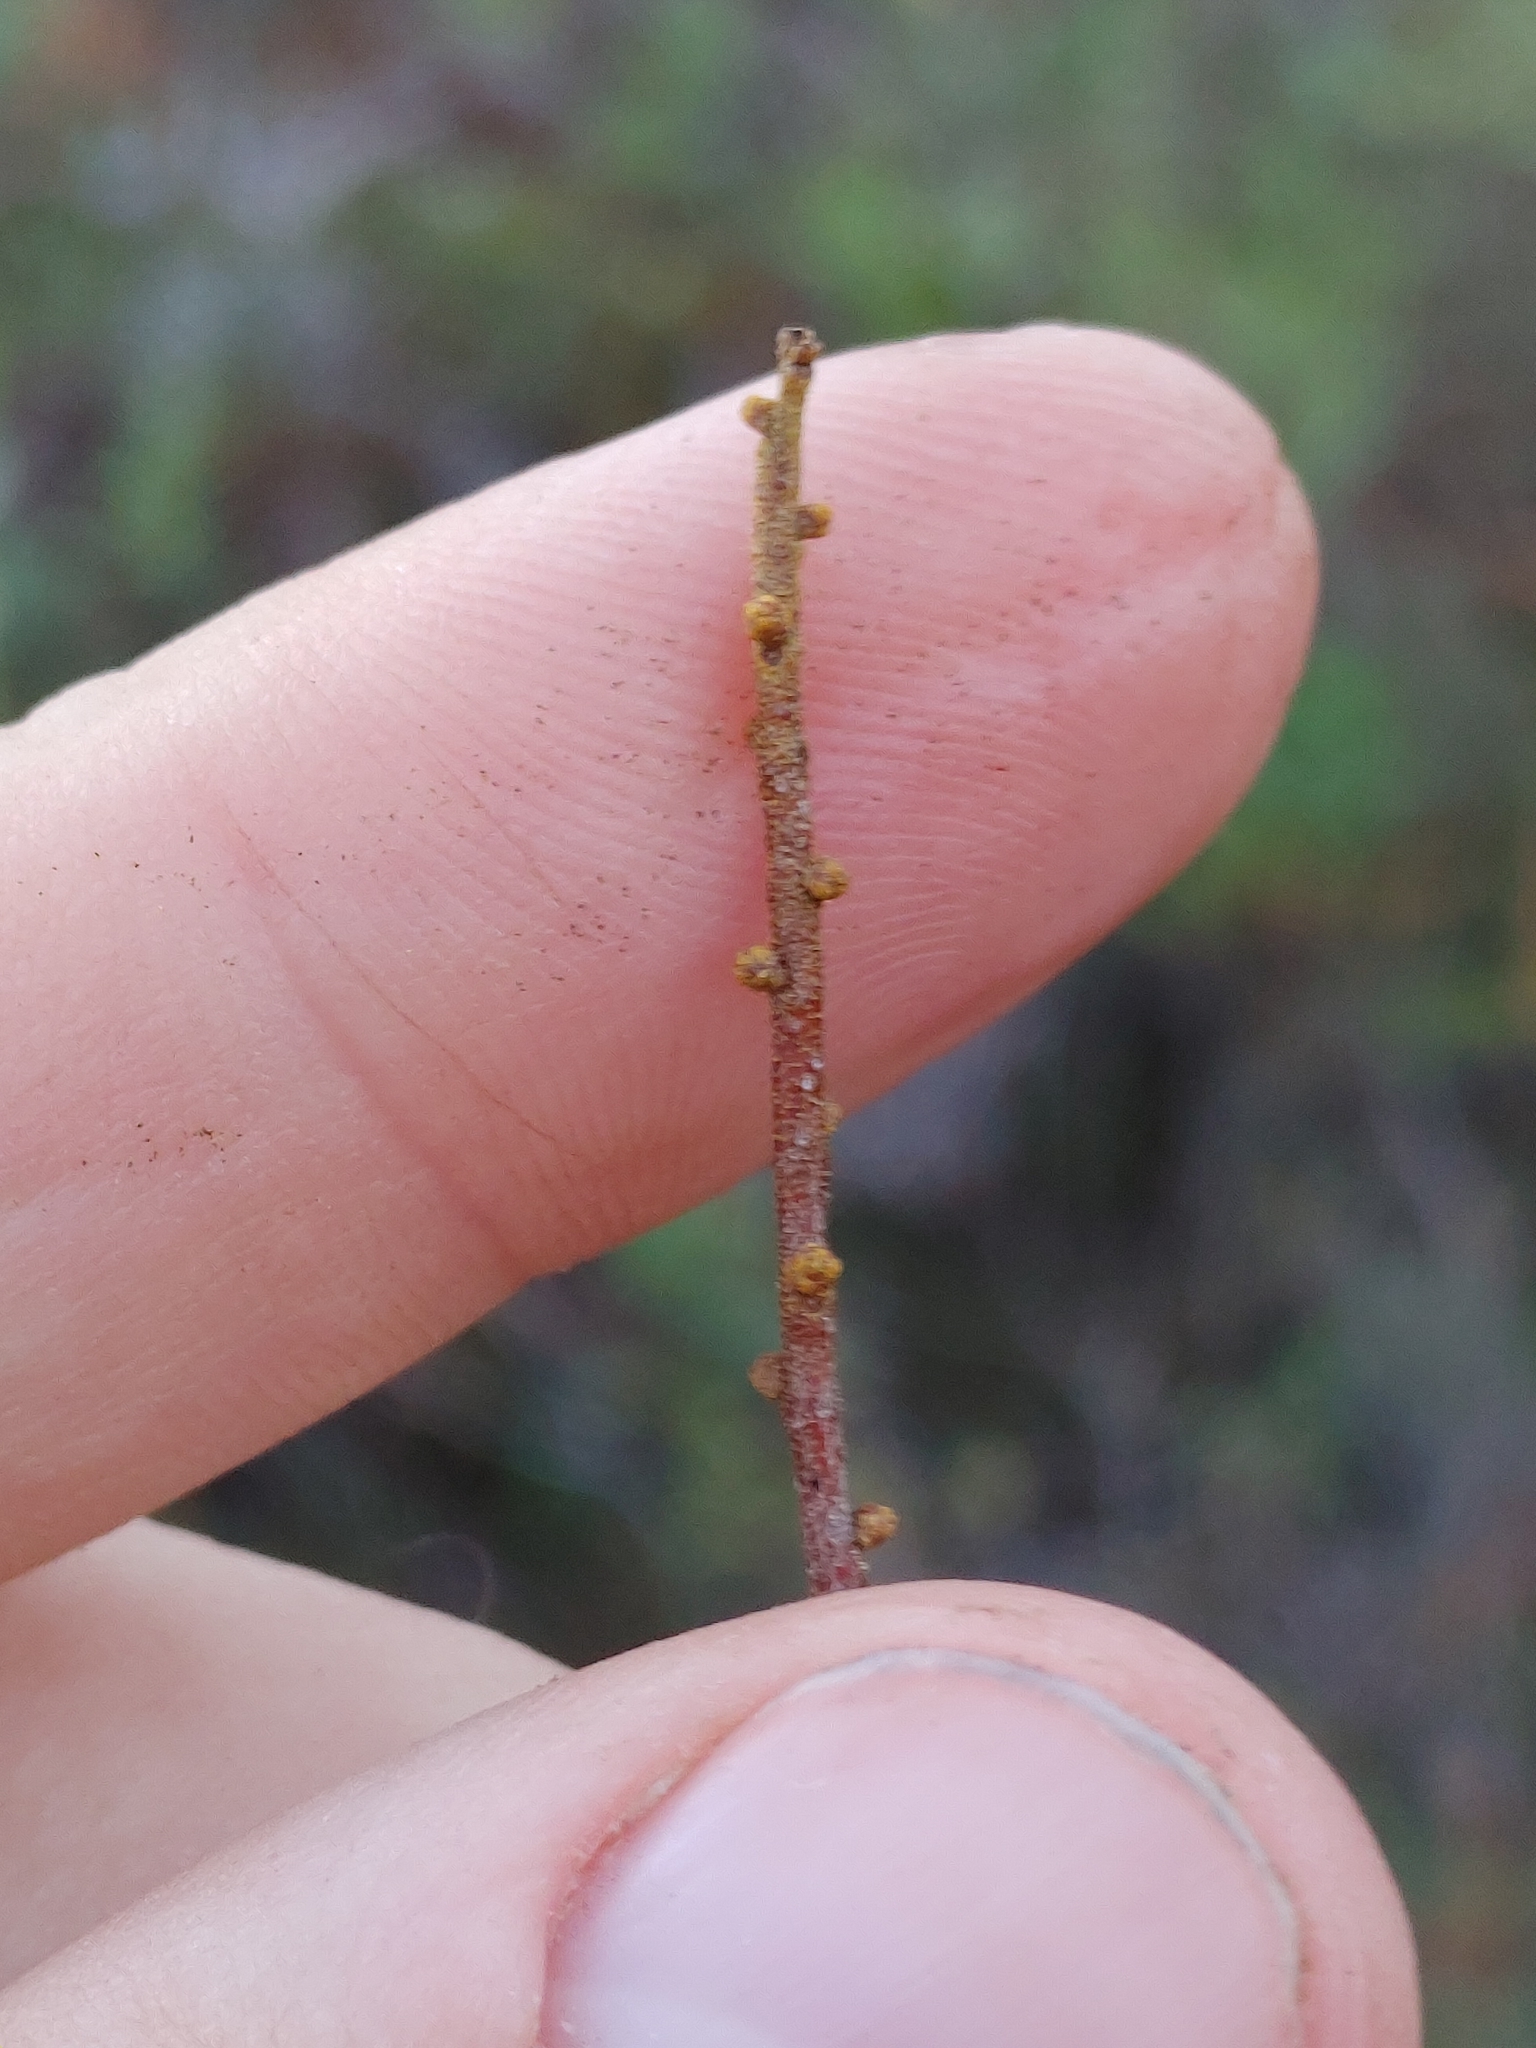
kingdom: Plantae
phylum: Tracheophyta
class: Magnoliopsida
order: Fagales
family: Myricaceae
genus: Morella
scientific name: Morella cerifera
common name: Wax myrtle
